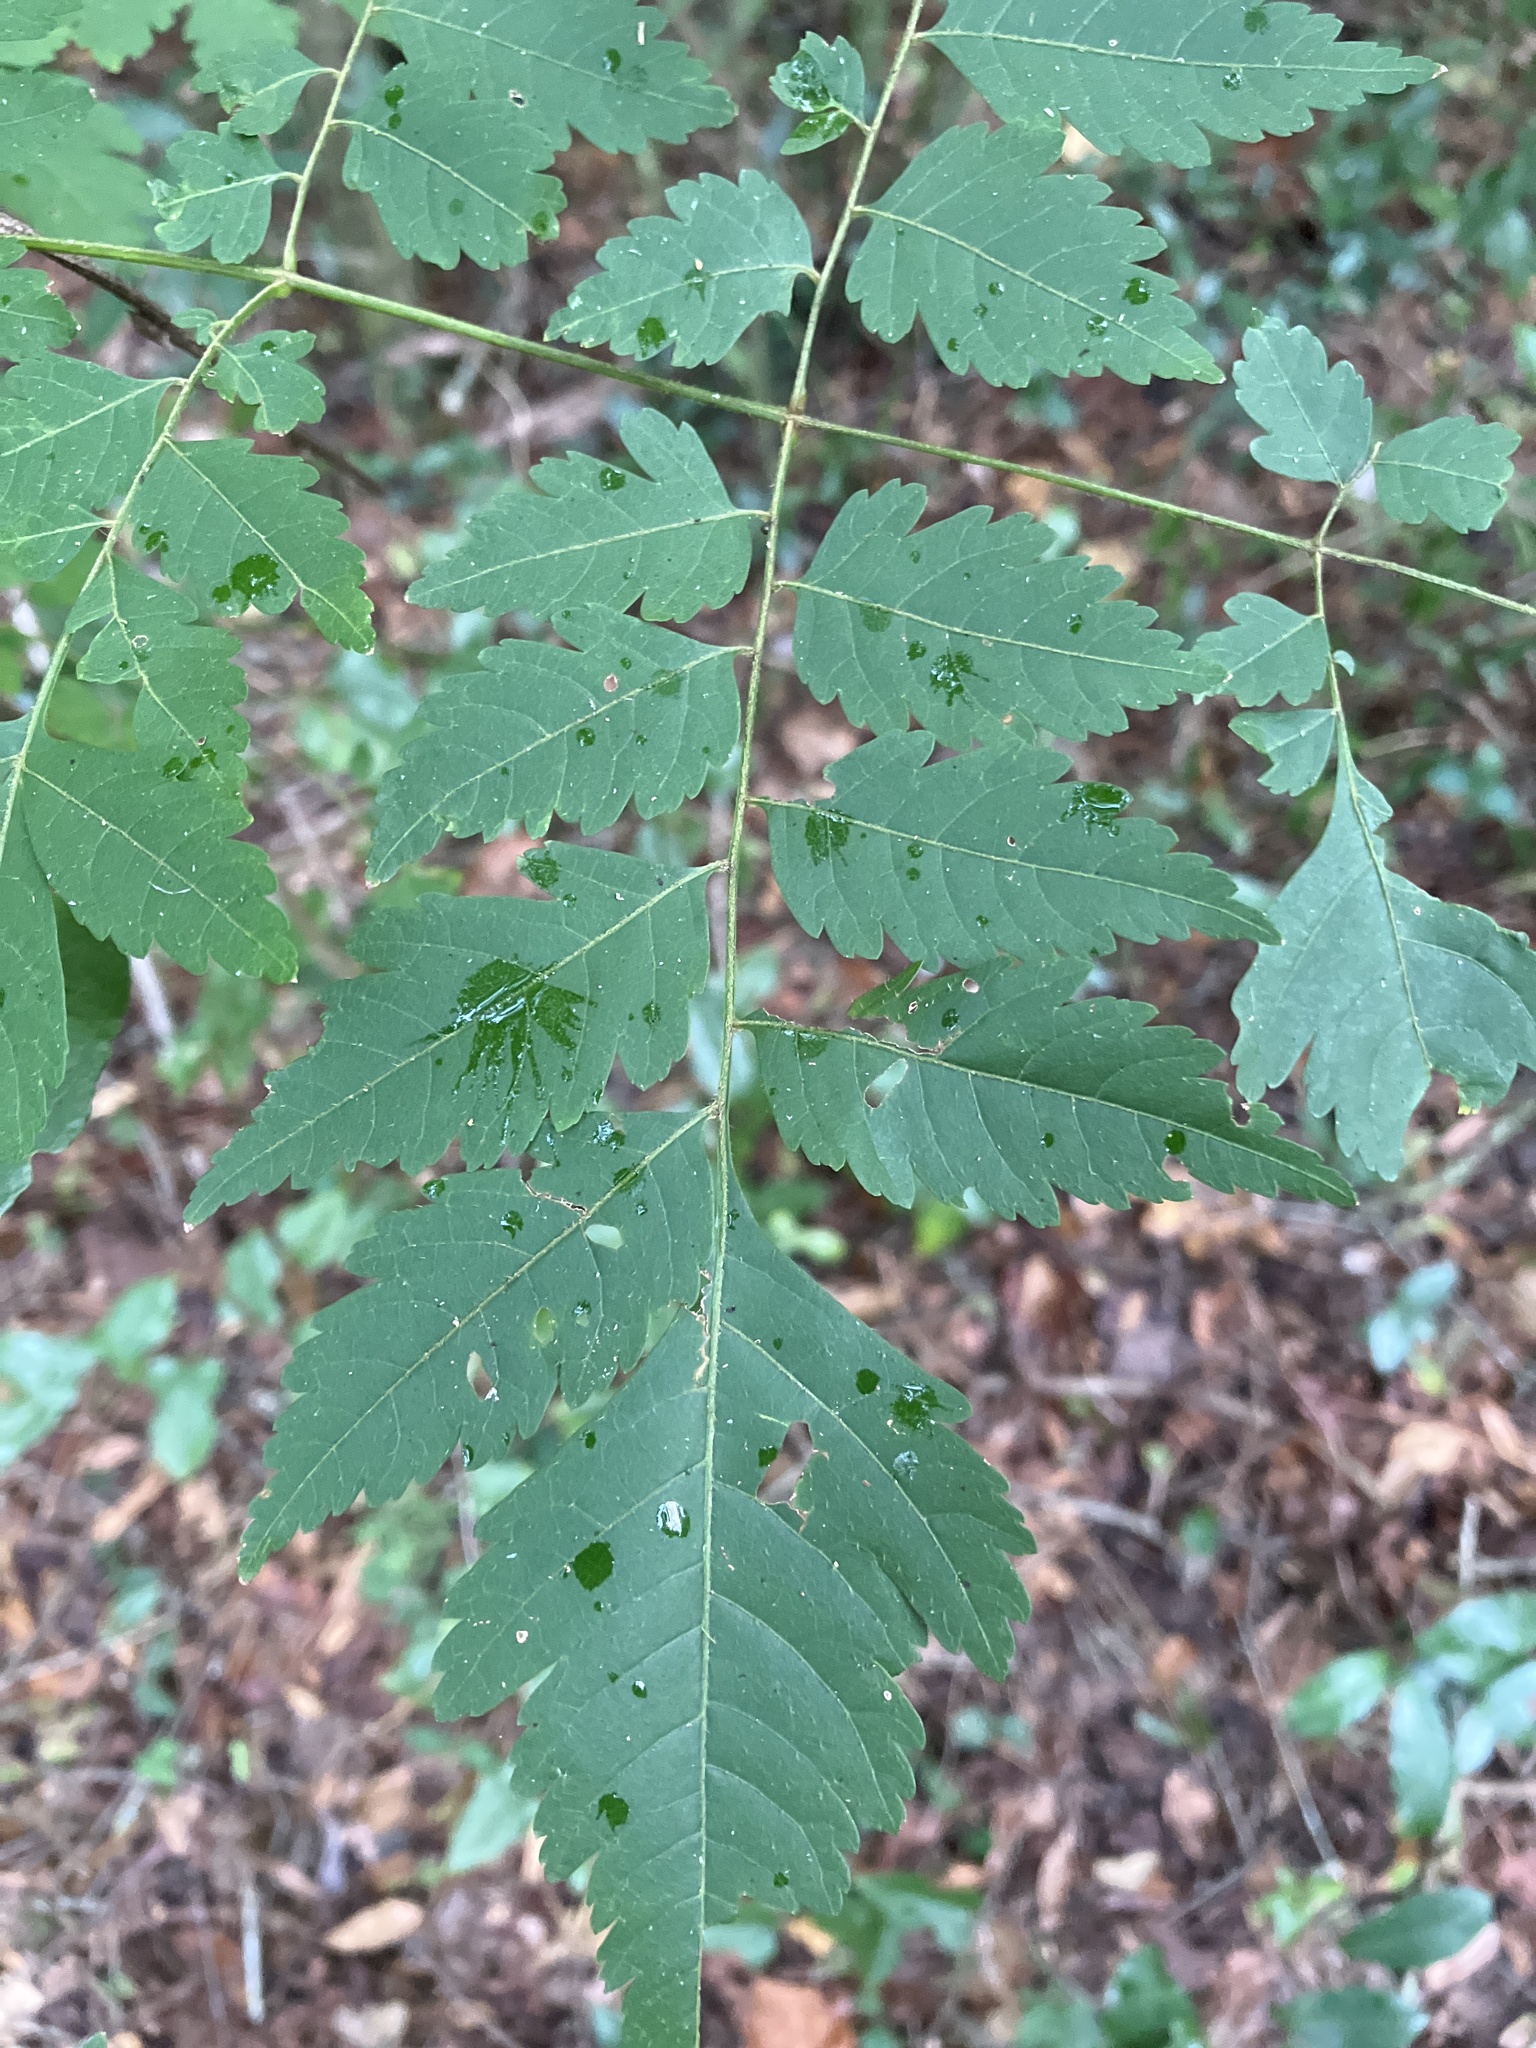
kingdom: Plantae
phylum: Tracheophyta
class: Magnoliopsida
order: Sapindales
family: Sapindaceae
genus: Koelreuteria
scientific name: Koelreuteria paniculata
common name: Pride-of-india
